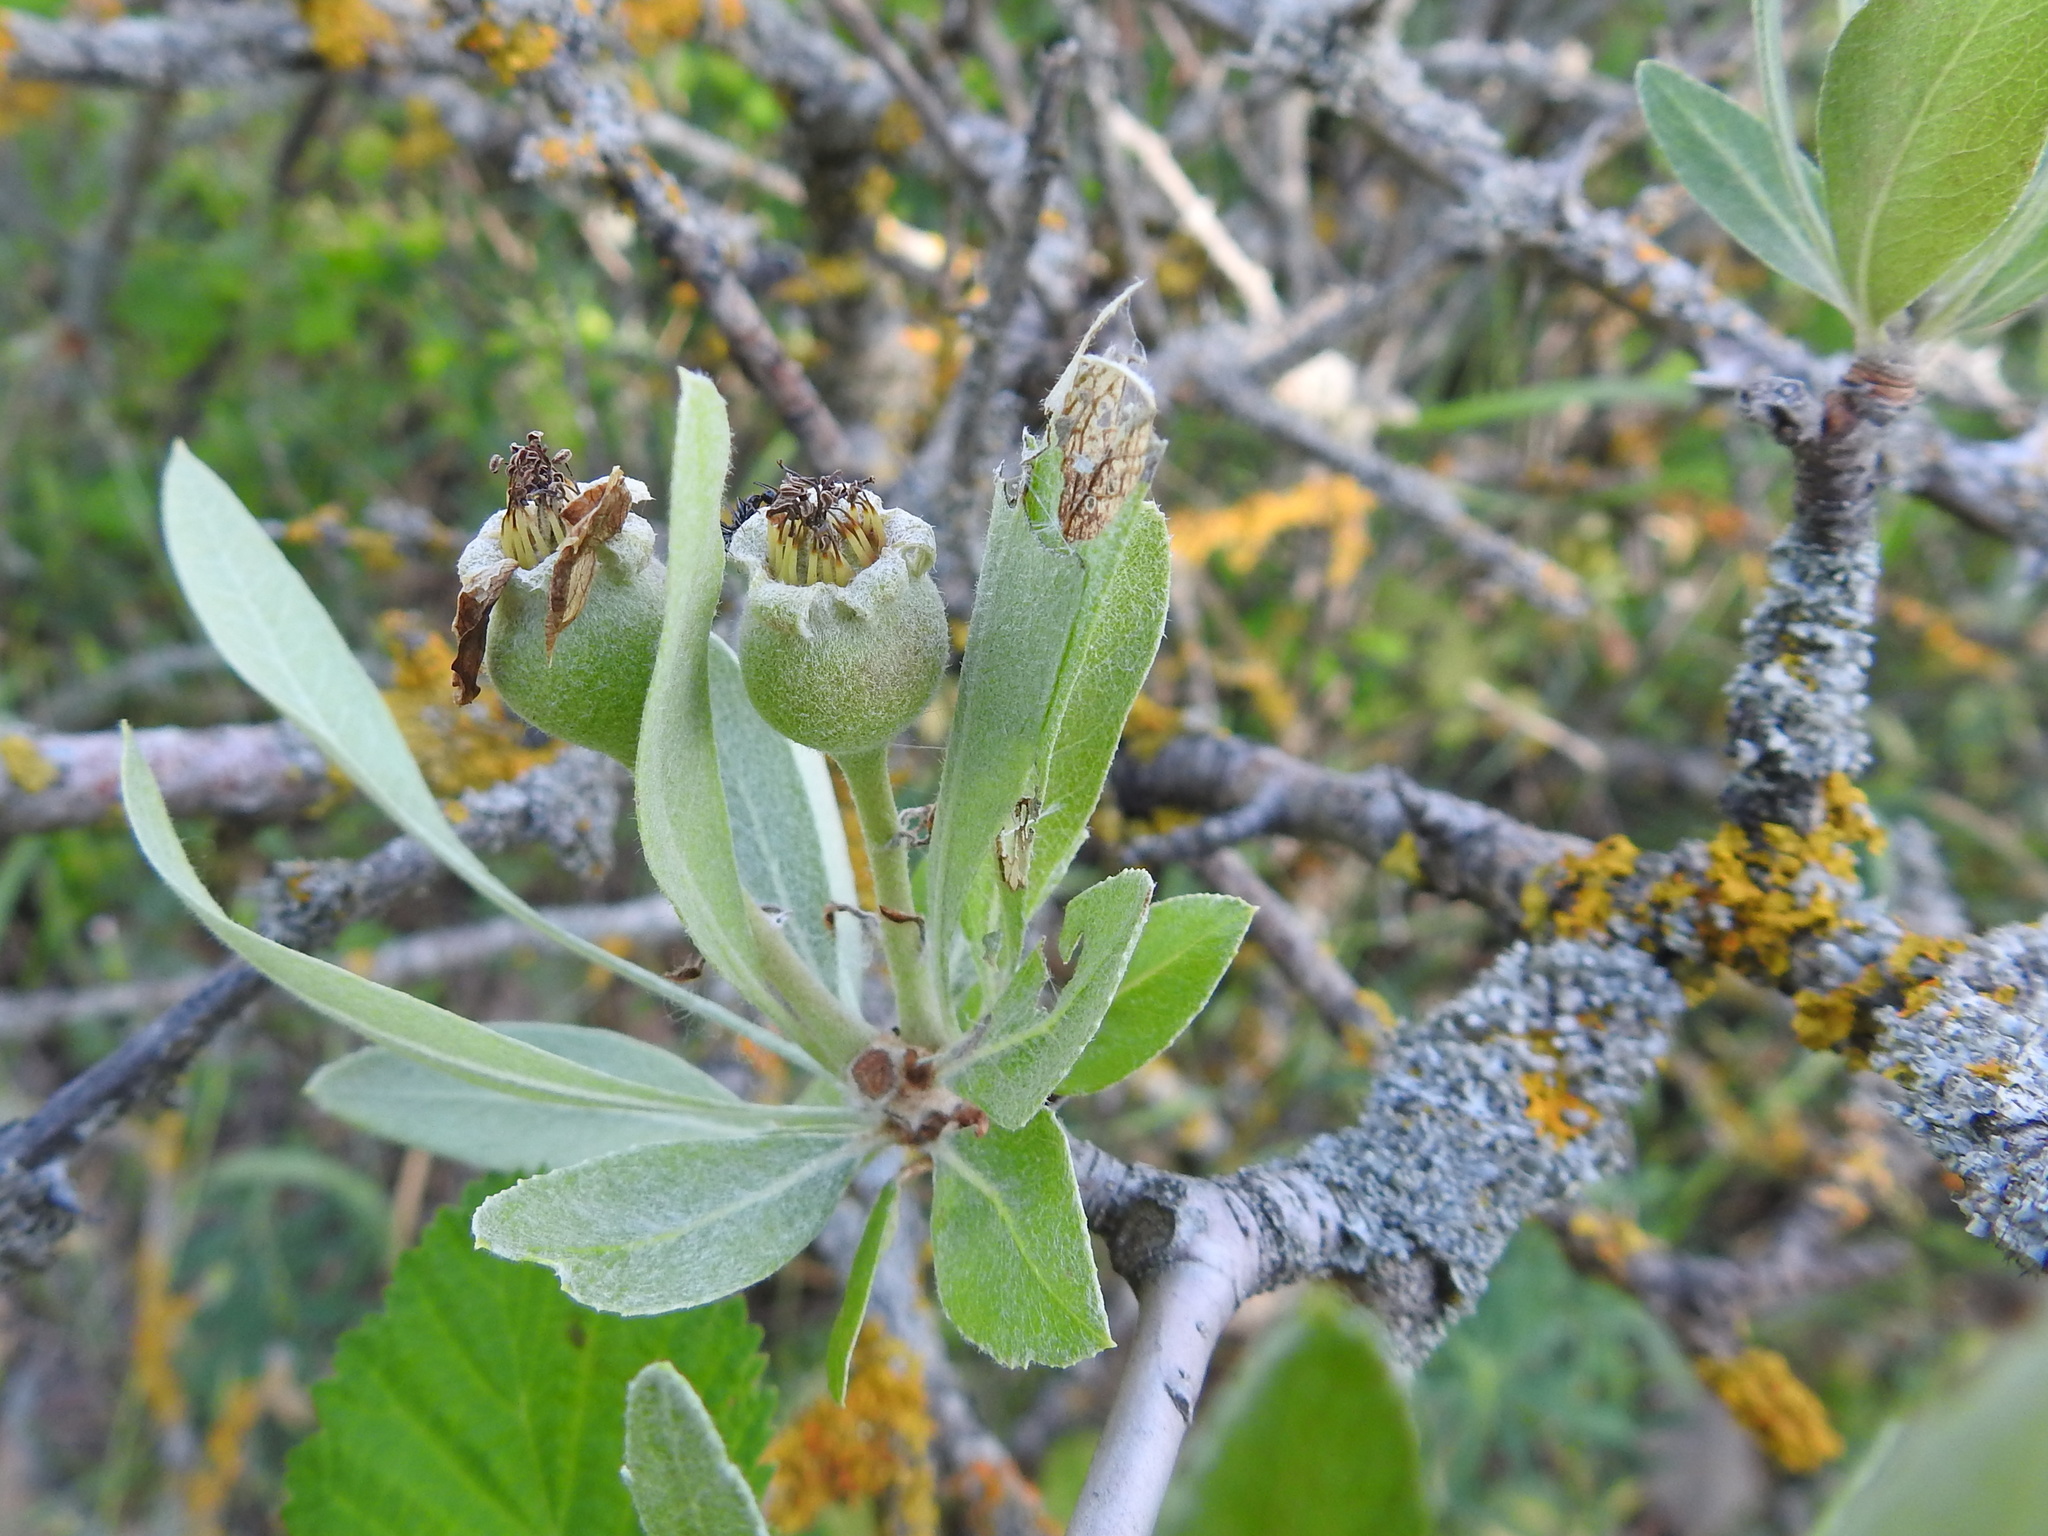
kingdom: Plantae
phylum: Tracheophyta
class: Magnoliopsida
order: Rosales
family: Rosaceae
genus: Pyrus
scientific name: Pyrus salicifolia
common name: Willow-leaved pear
